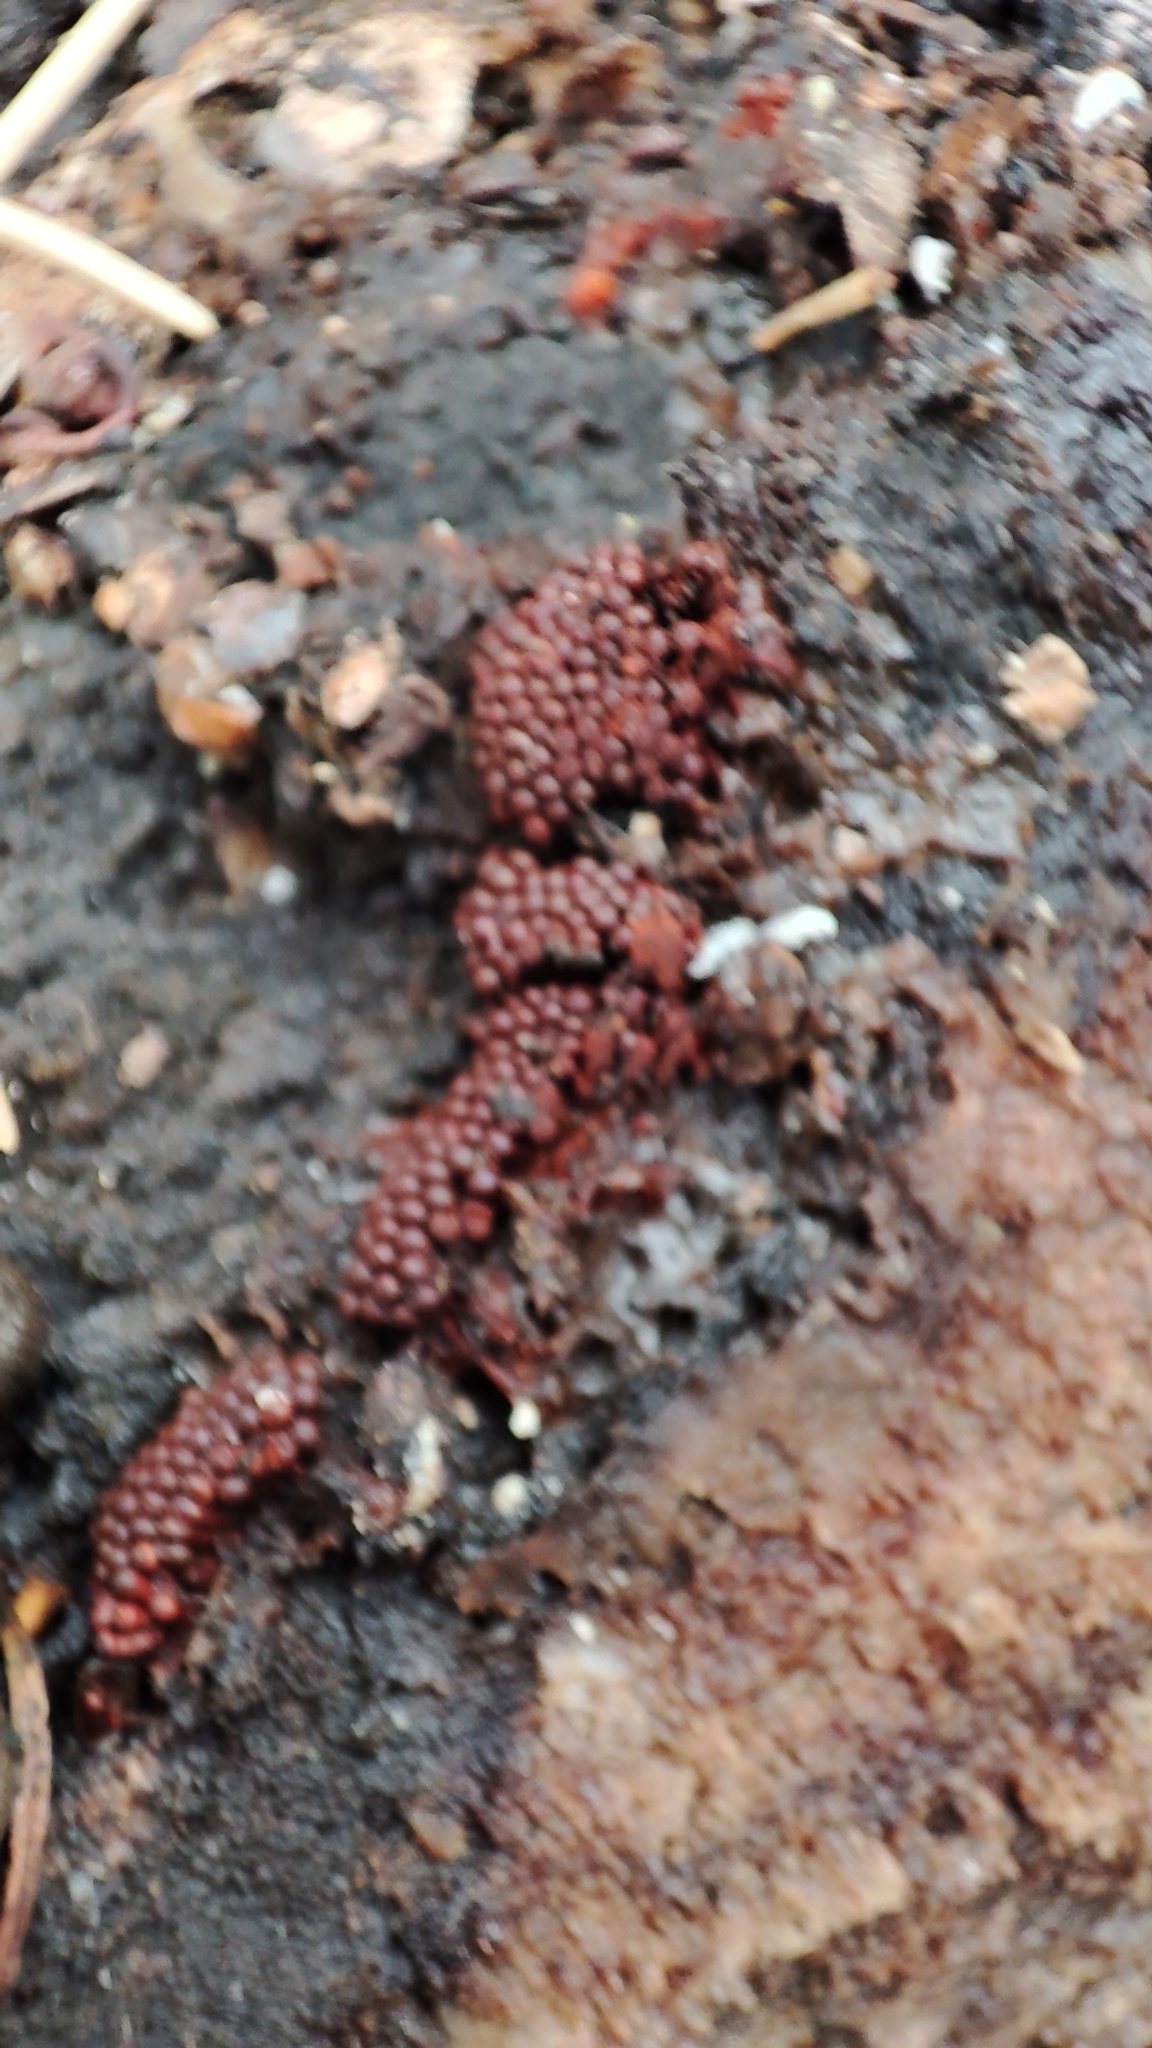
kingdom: Protozoa
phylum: Mycetozoa
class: Myxomycetes
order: Trichiales
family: Trichiaceae
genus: Metatrichia
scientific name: Metatrichia vesparia
